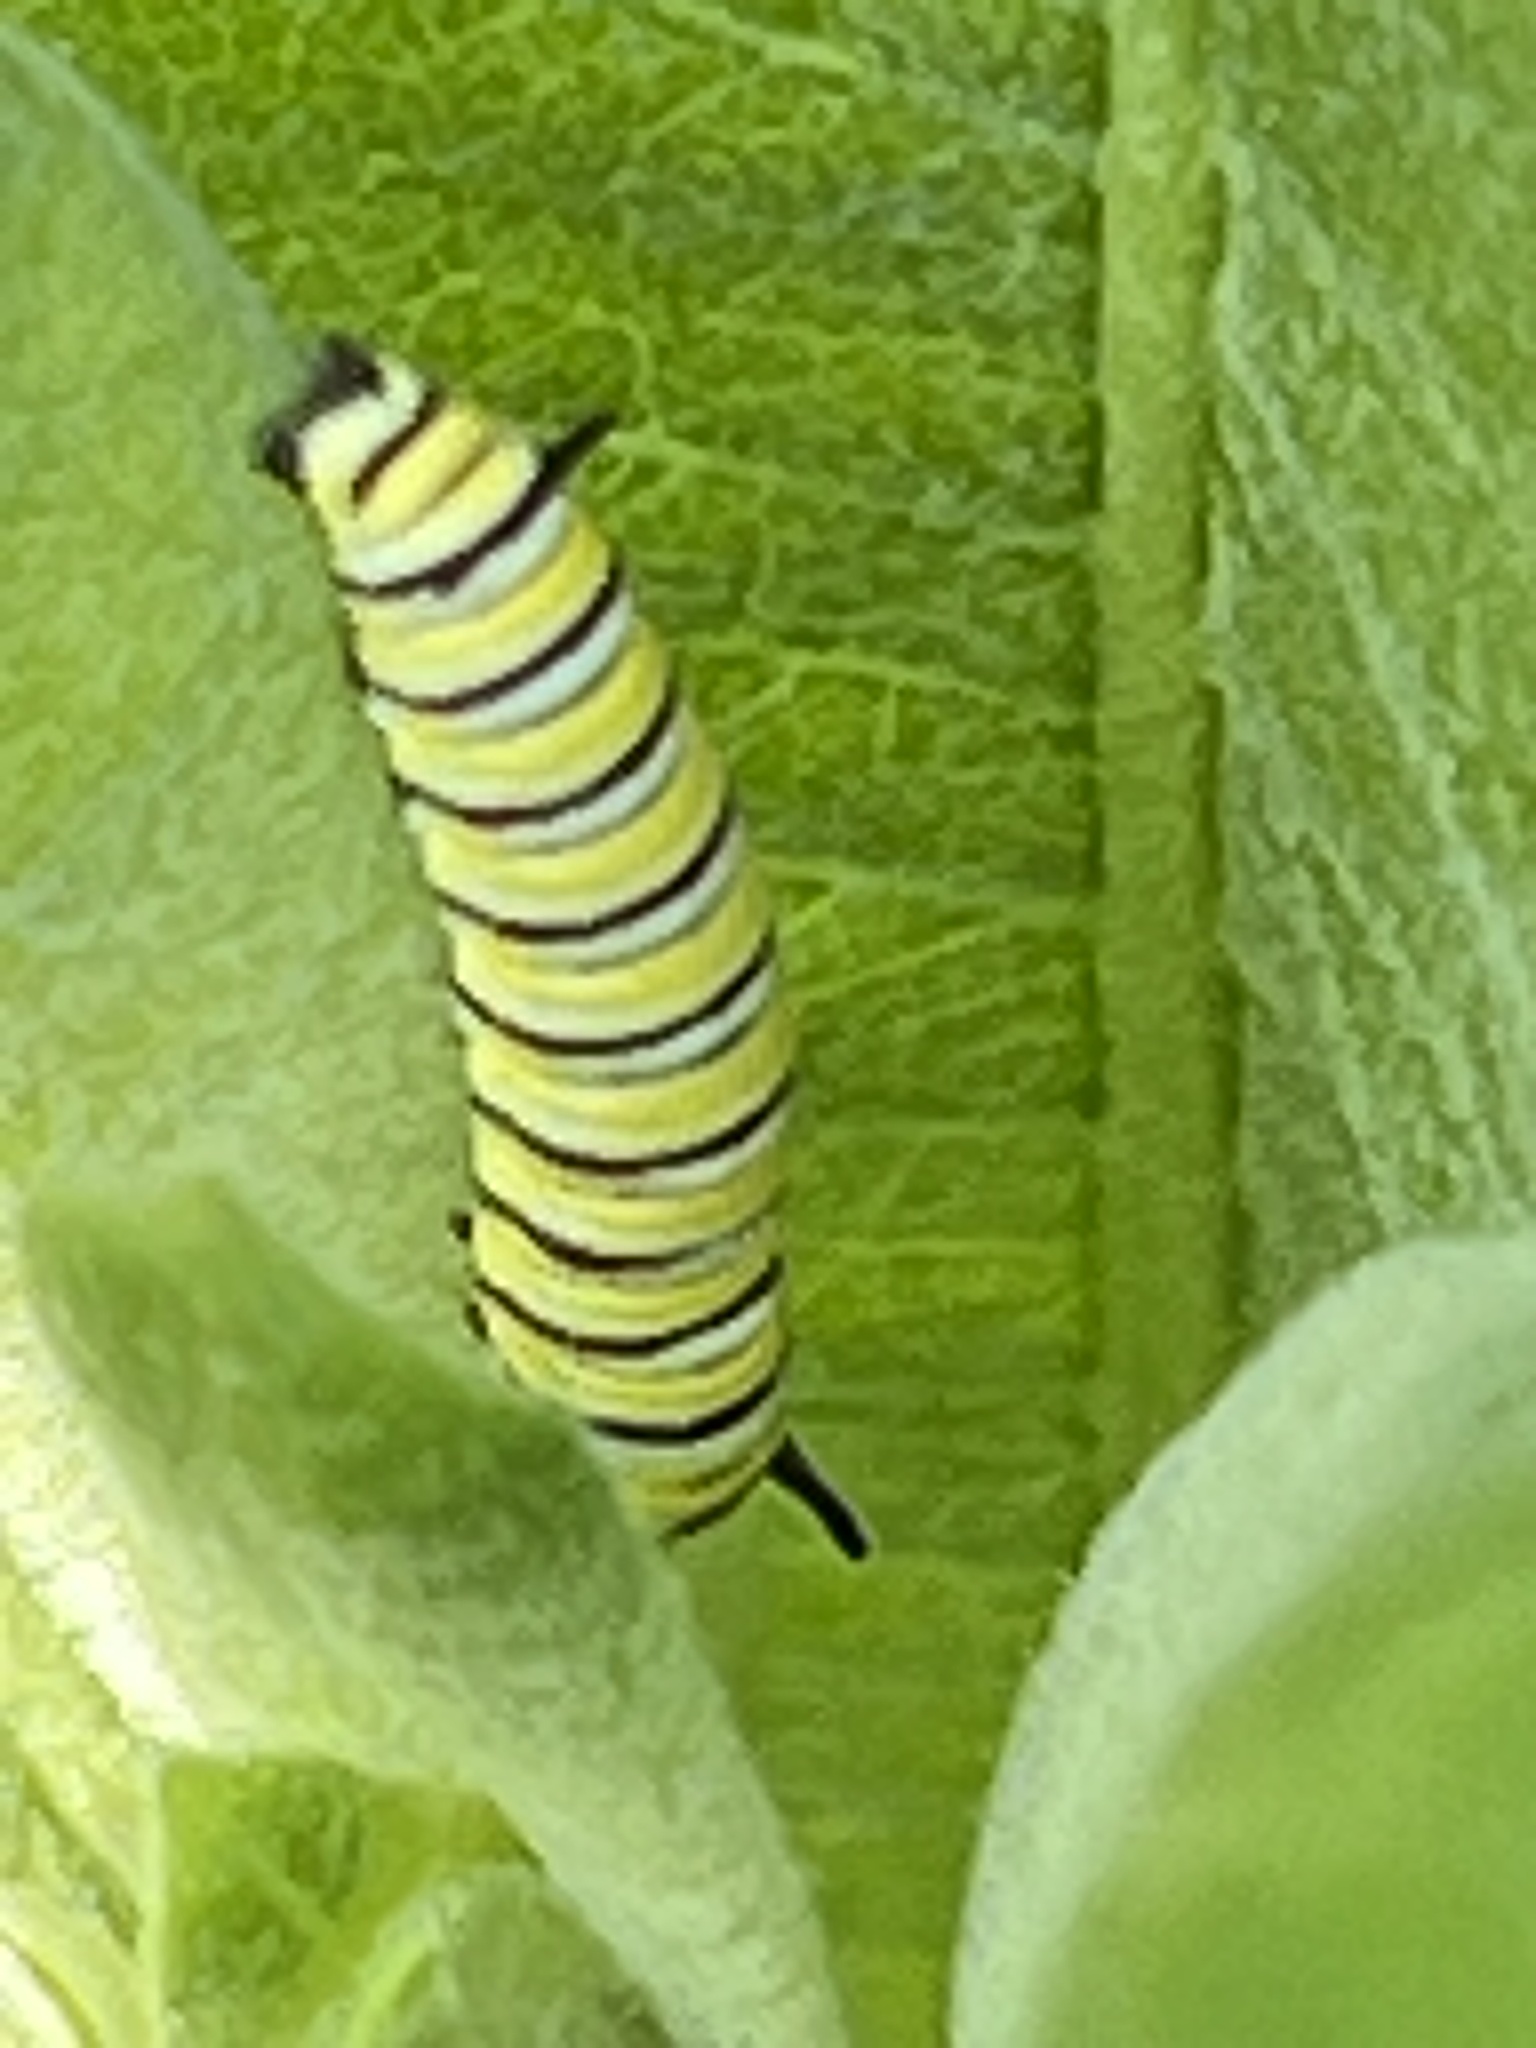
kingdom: Animalia
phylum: Arthropoda
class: Insecta
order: Lepidoptera
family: Nymphalidae
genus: Danaus
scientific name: Danaus plexippus
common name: Monarch
